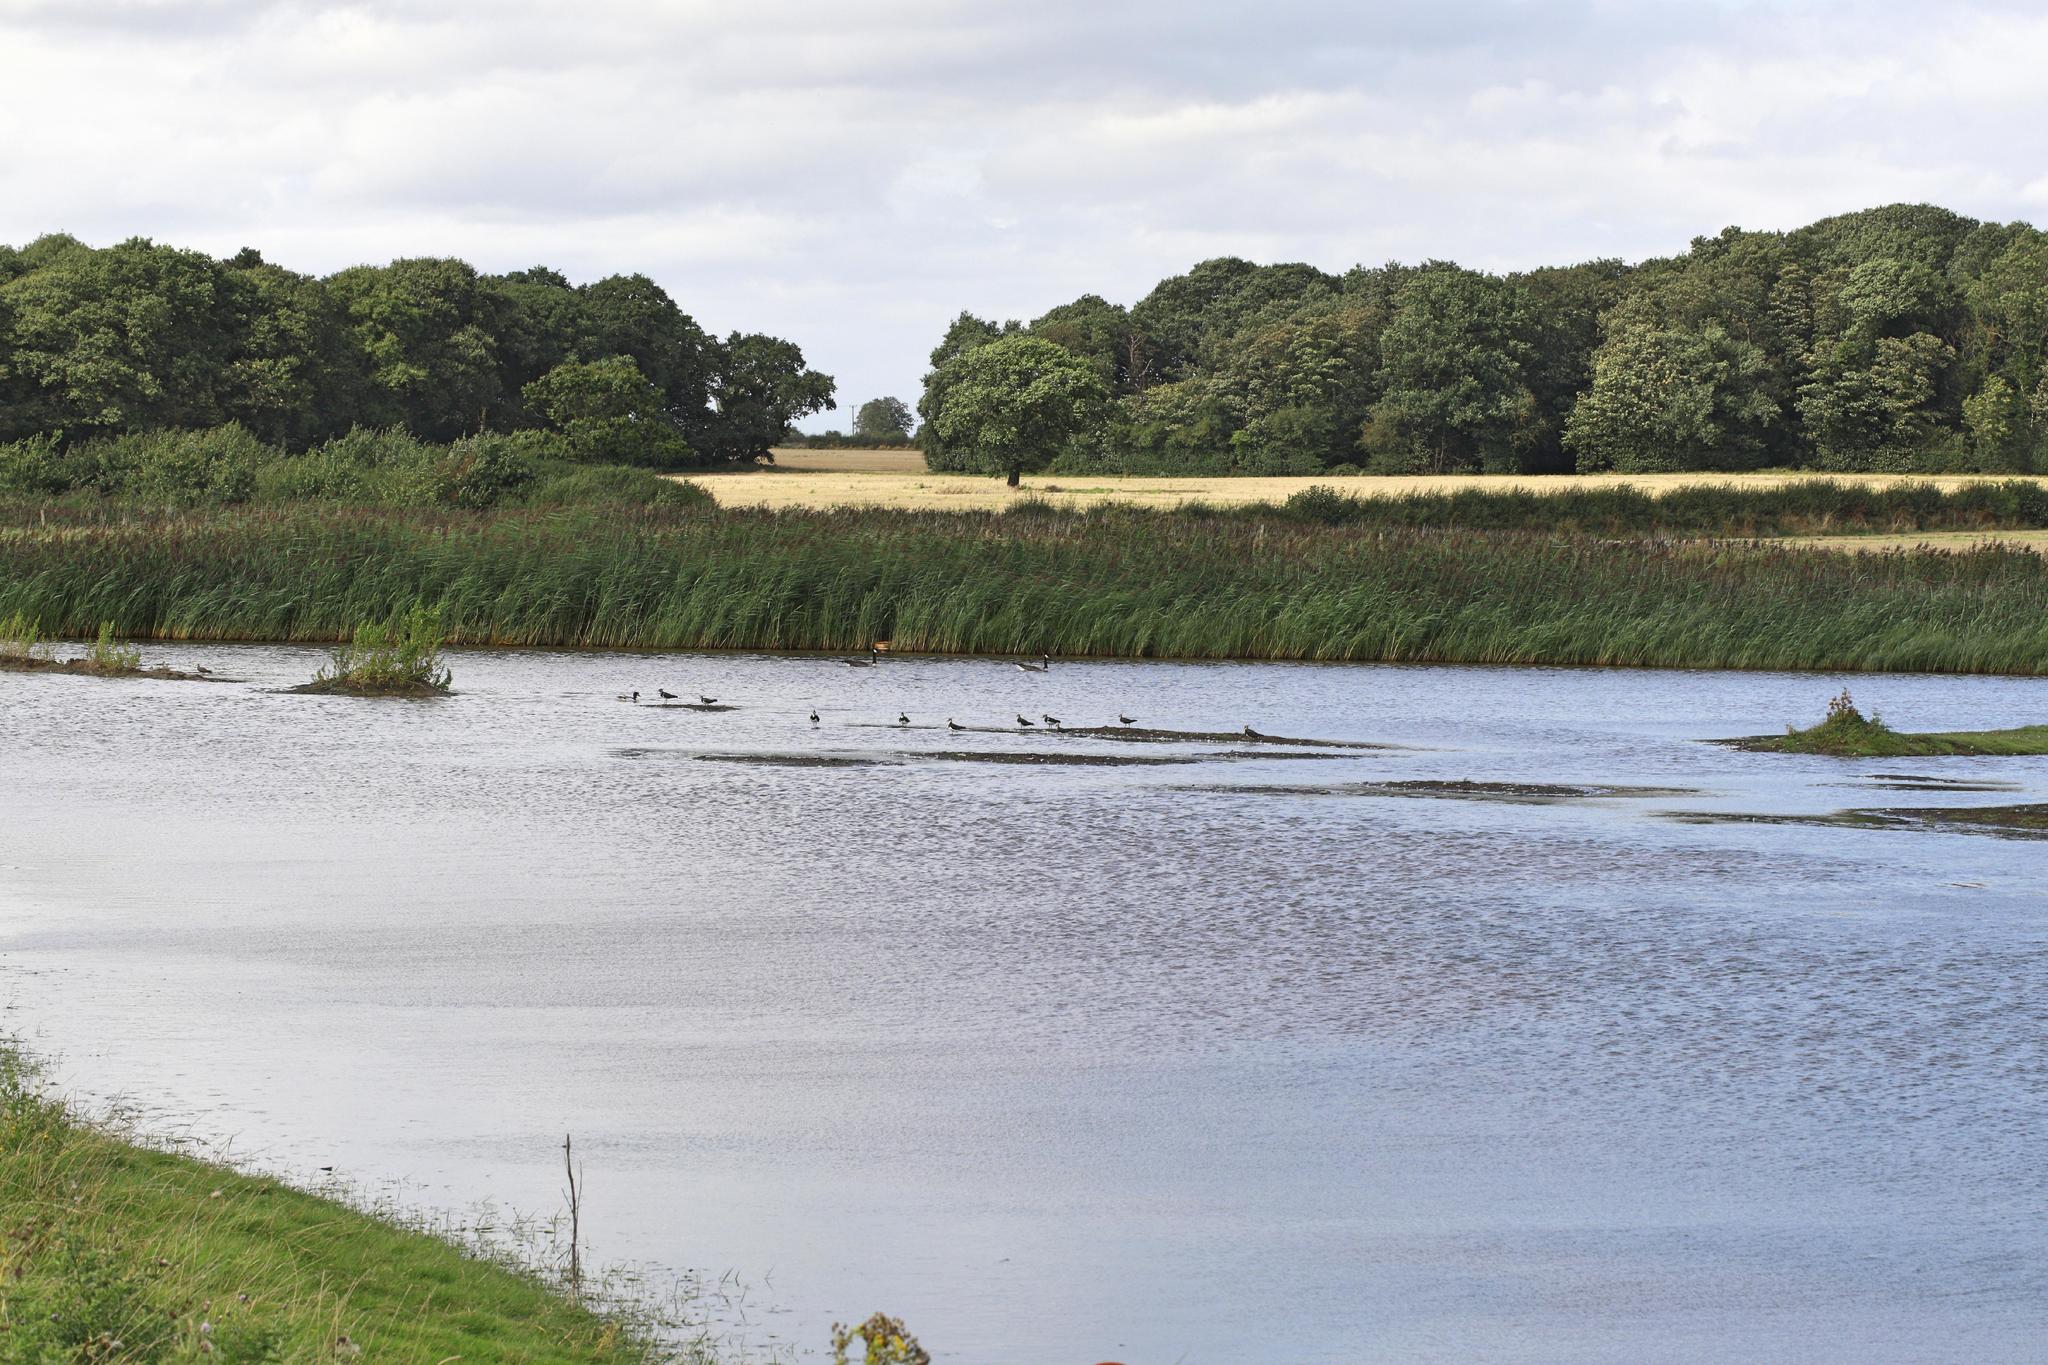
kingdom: Animalia
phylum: Chordata
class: Aves
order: Charadriiformes
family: Charadriidae
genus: Vanellus
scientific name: Vanellus vanellus
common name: Northern lapwing
